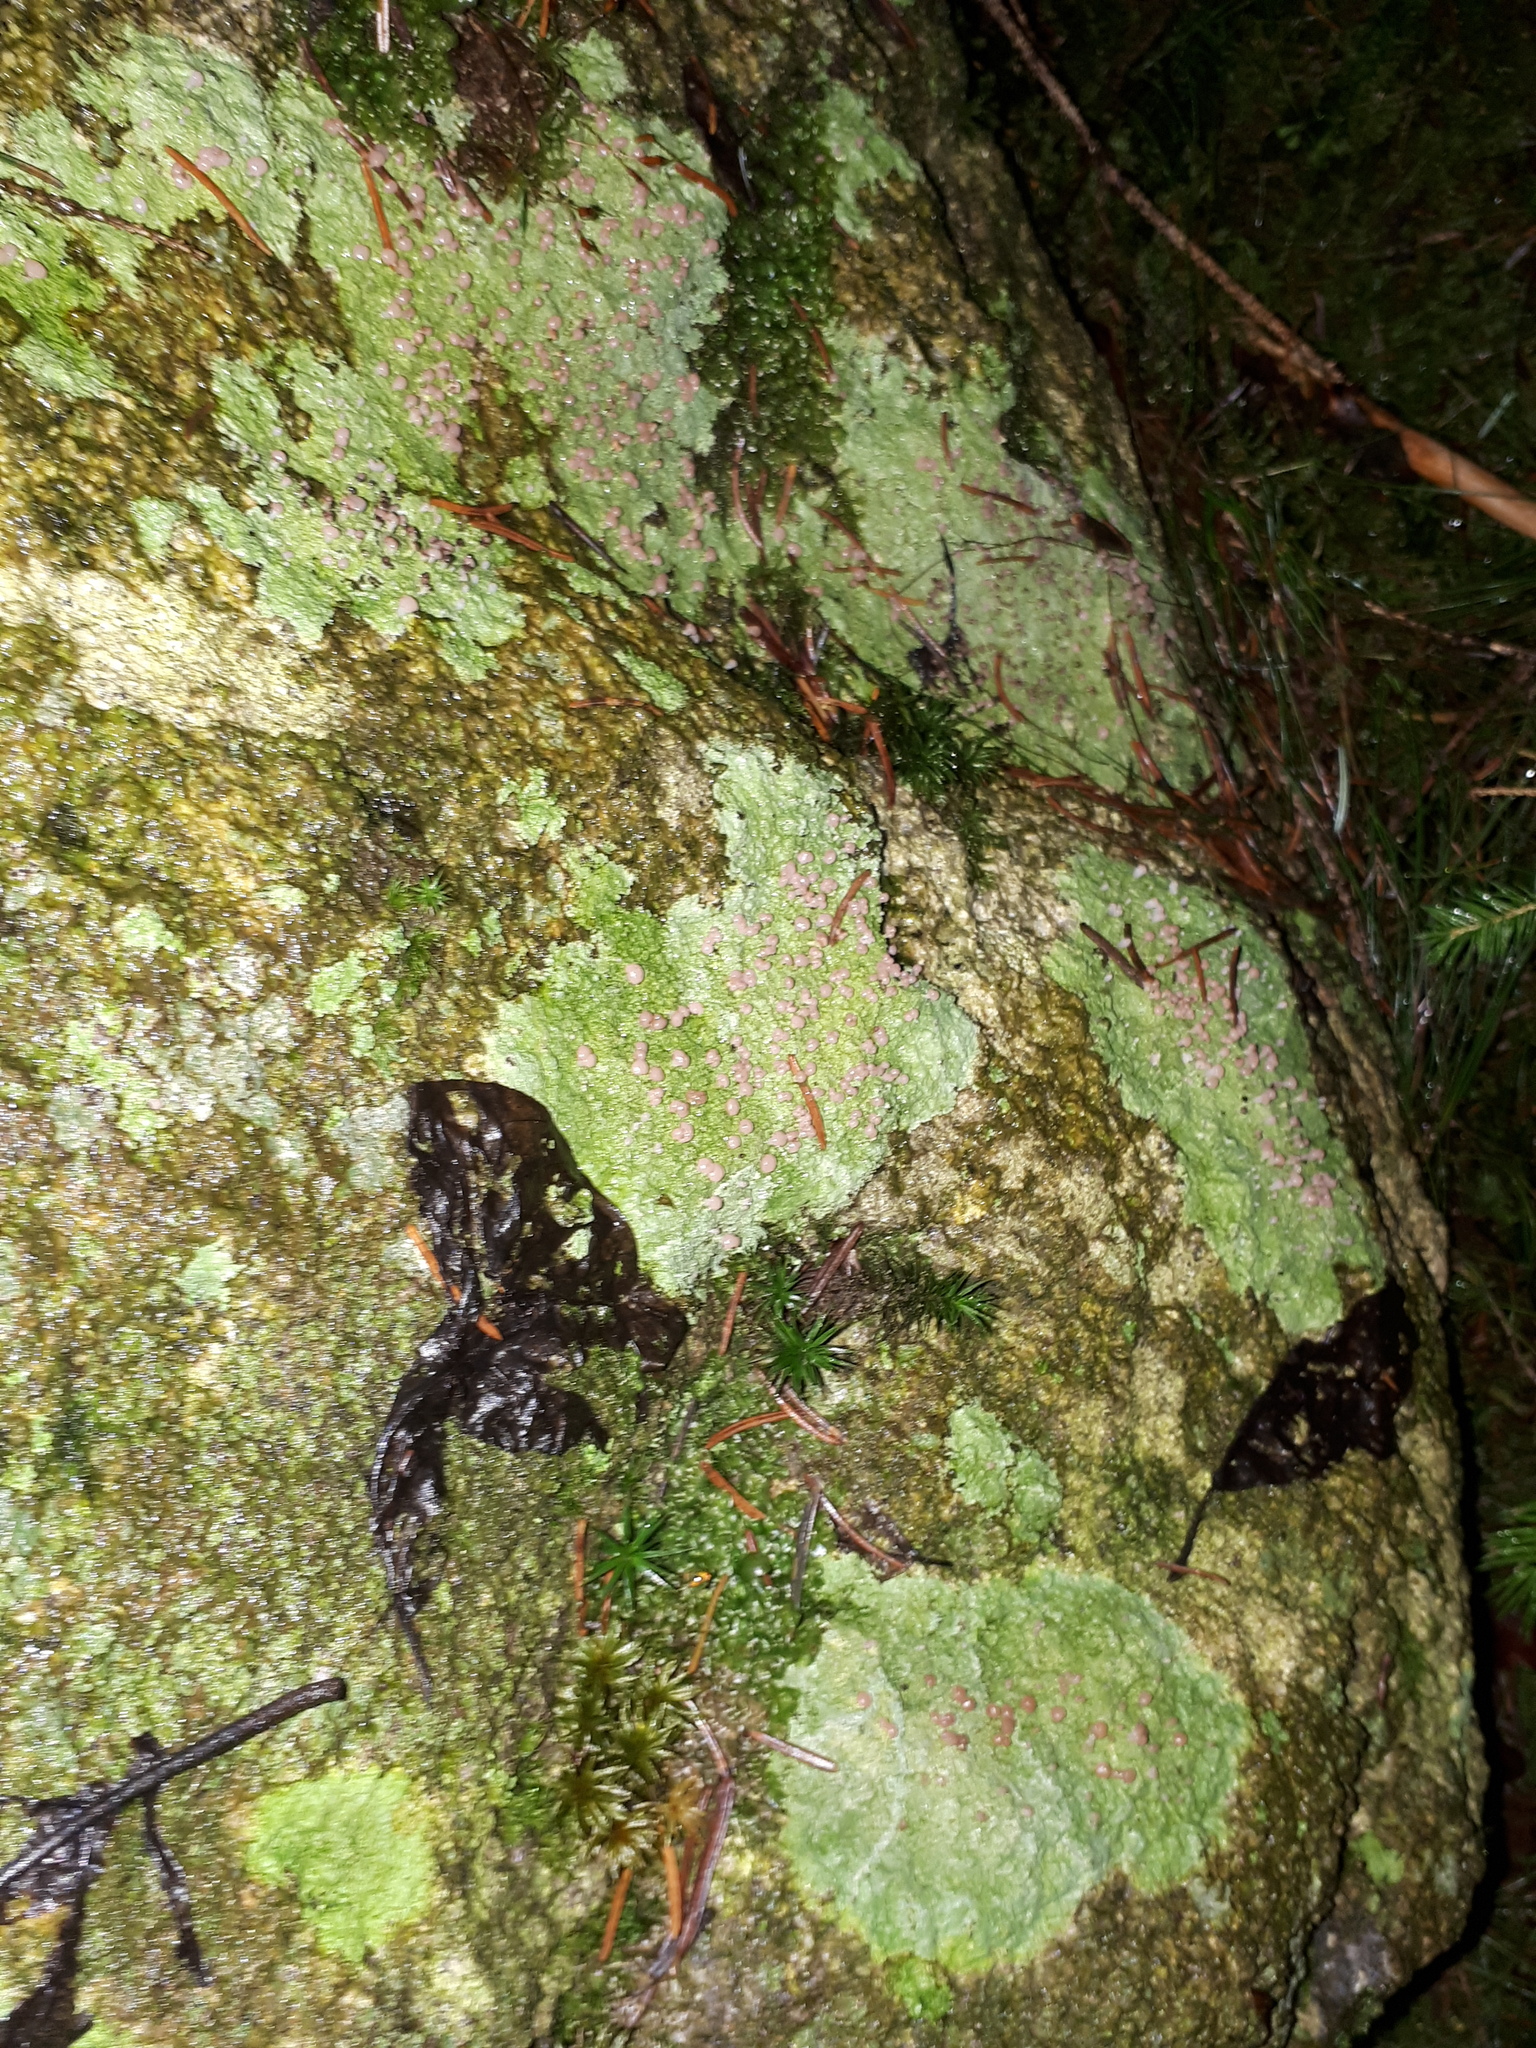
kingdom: Fungi
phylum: Ascomycota
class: Lecanoromycetes
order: Baeomycetales
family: Baeomycetaceae
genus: Baeomyces
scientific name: Baeomyces rufus
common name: Brown beret lichen
